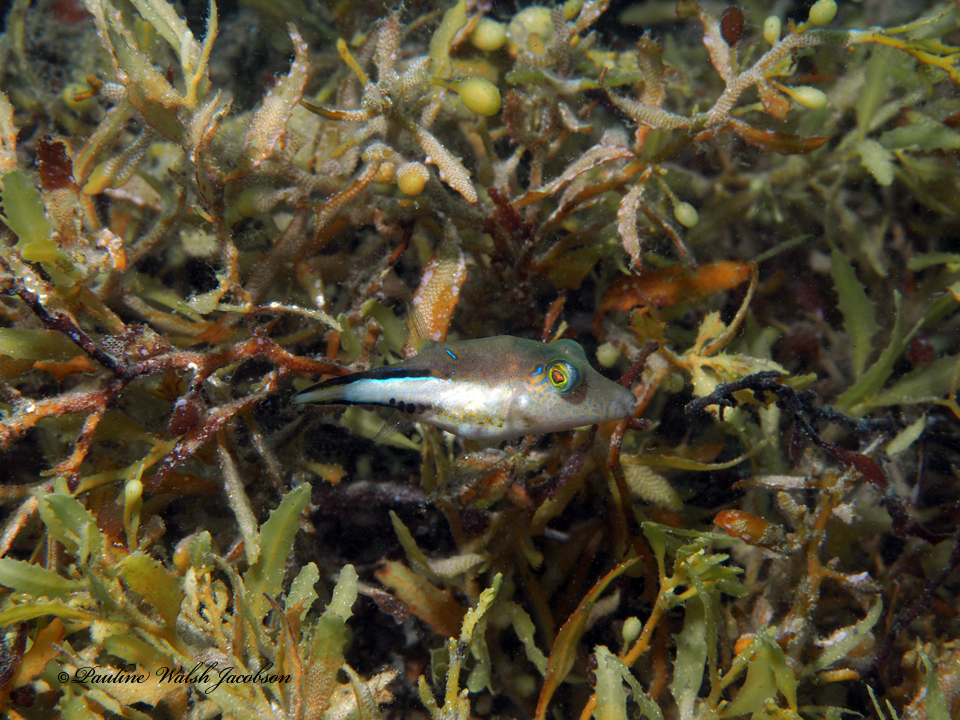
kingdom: Animalia
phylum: Chordata
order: Tetraodontiformes
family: Tetraodontidae
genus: Canthigaster
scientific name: Canthigaster rostrata
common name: Caribbean sharpnose-puffer
